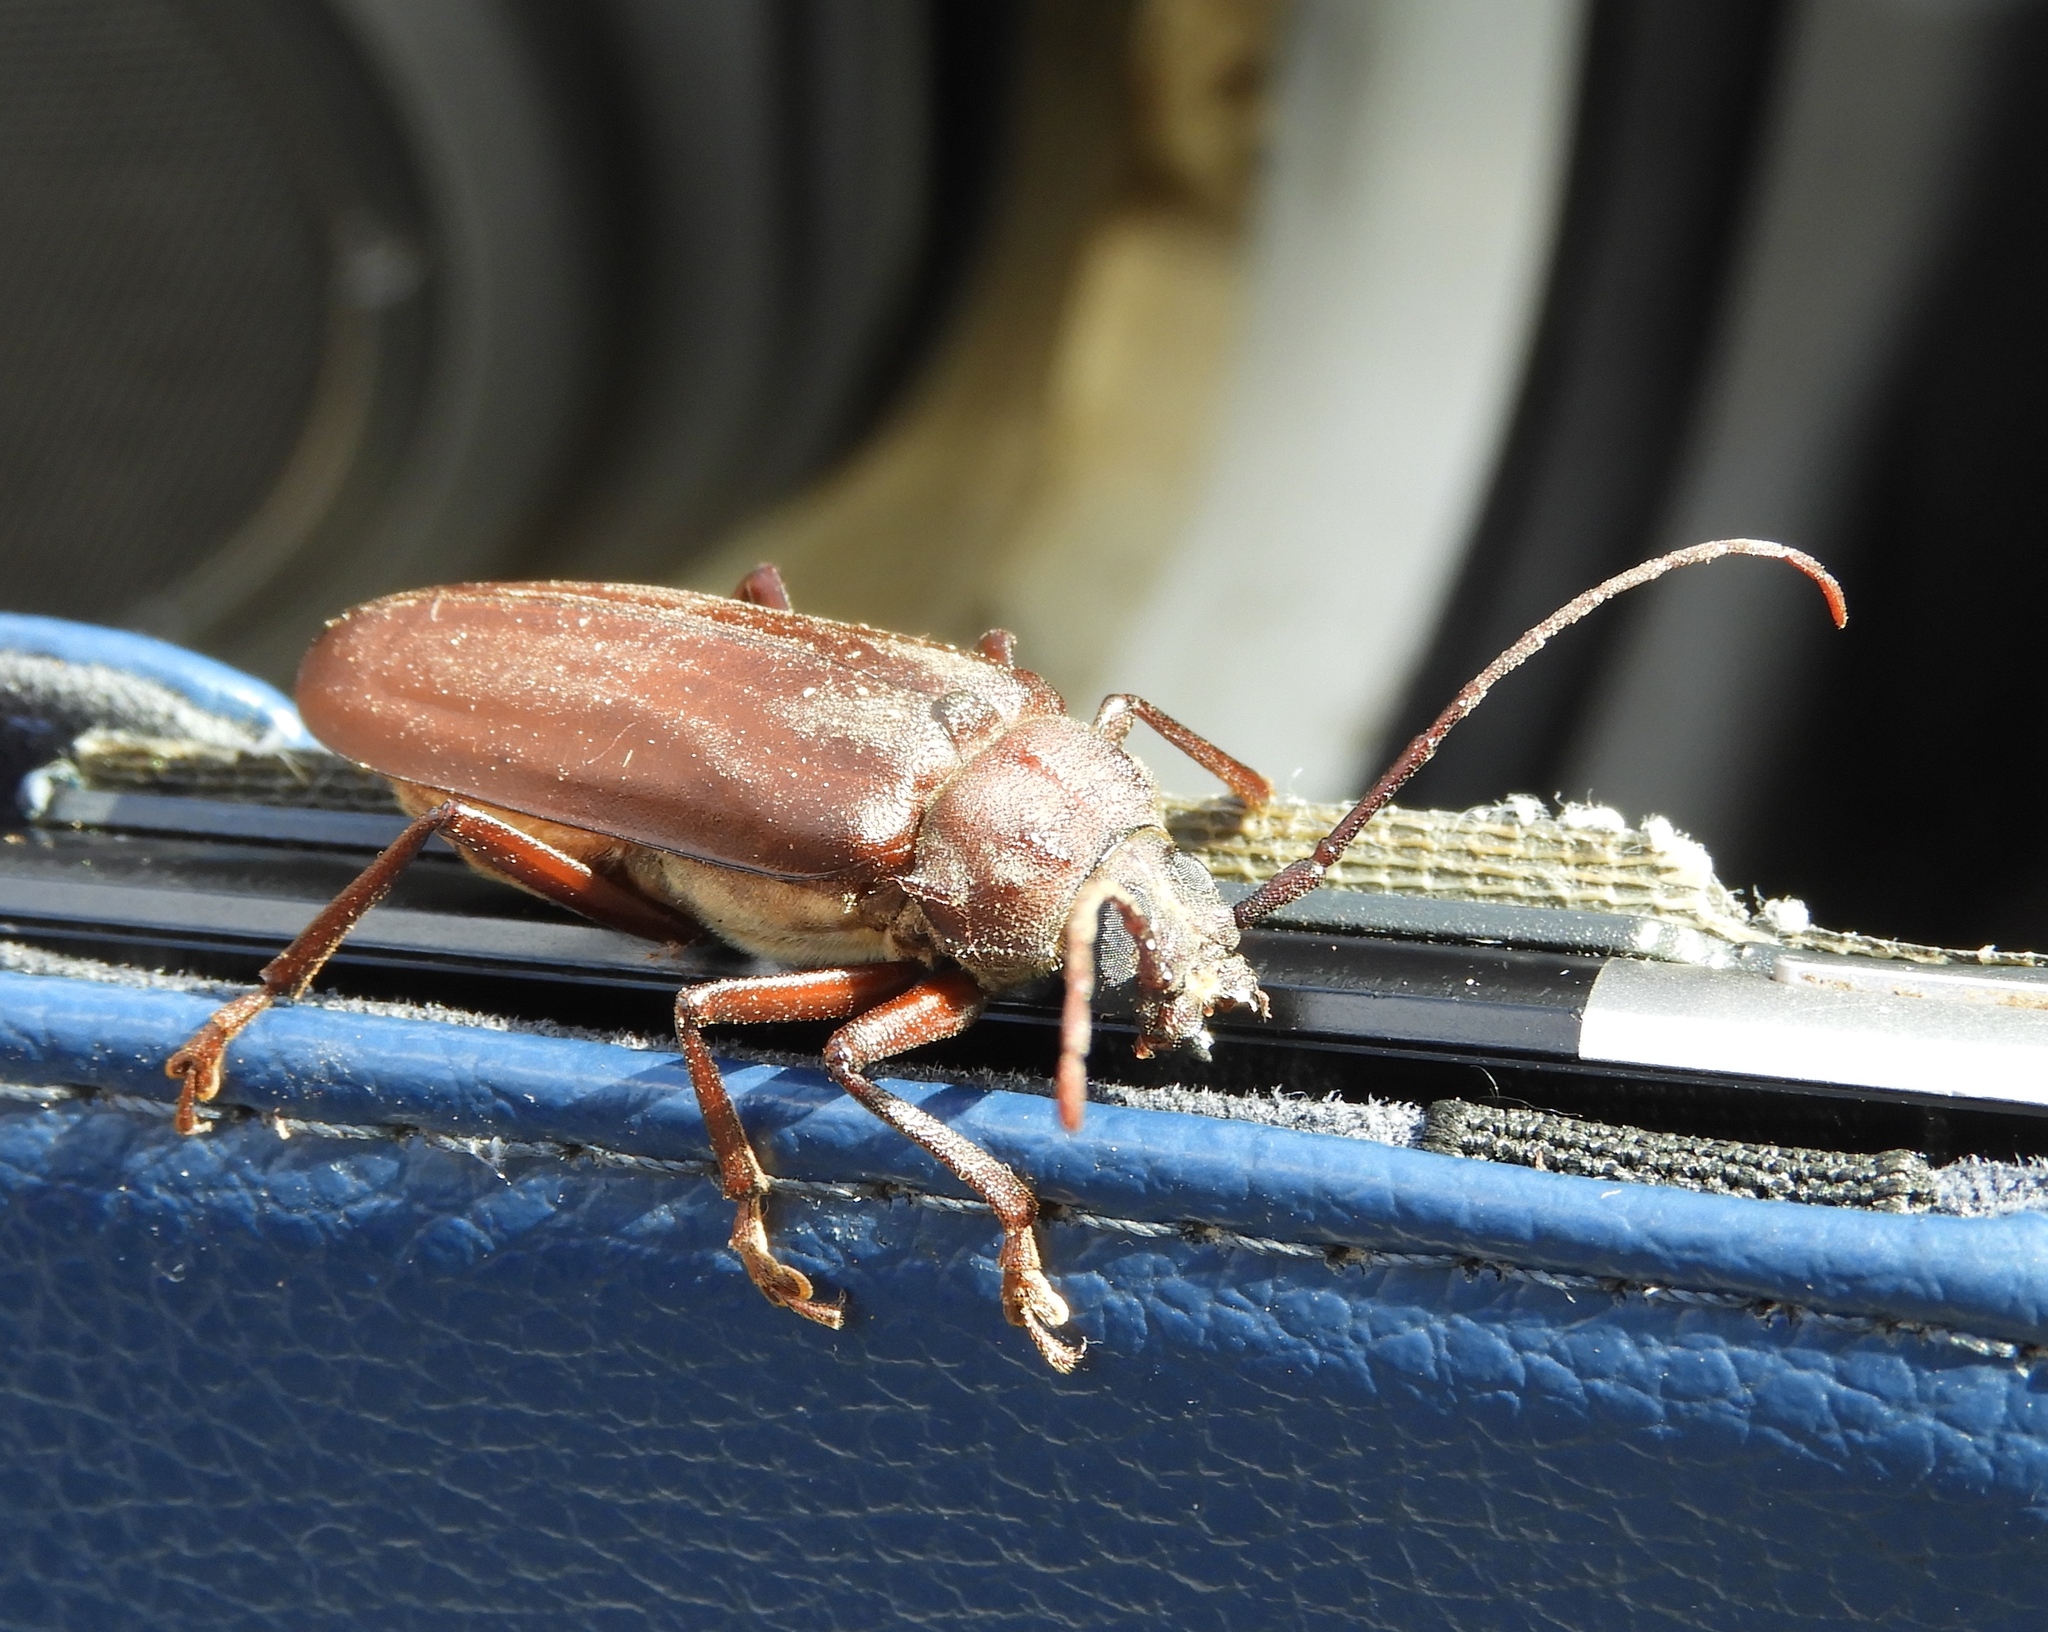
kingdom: Animalia
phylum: Arthropoda
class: Insecta
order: Coleoptera
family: Cerambycidae
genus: Strongylaspis
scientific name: Strongylaspis championi
